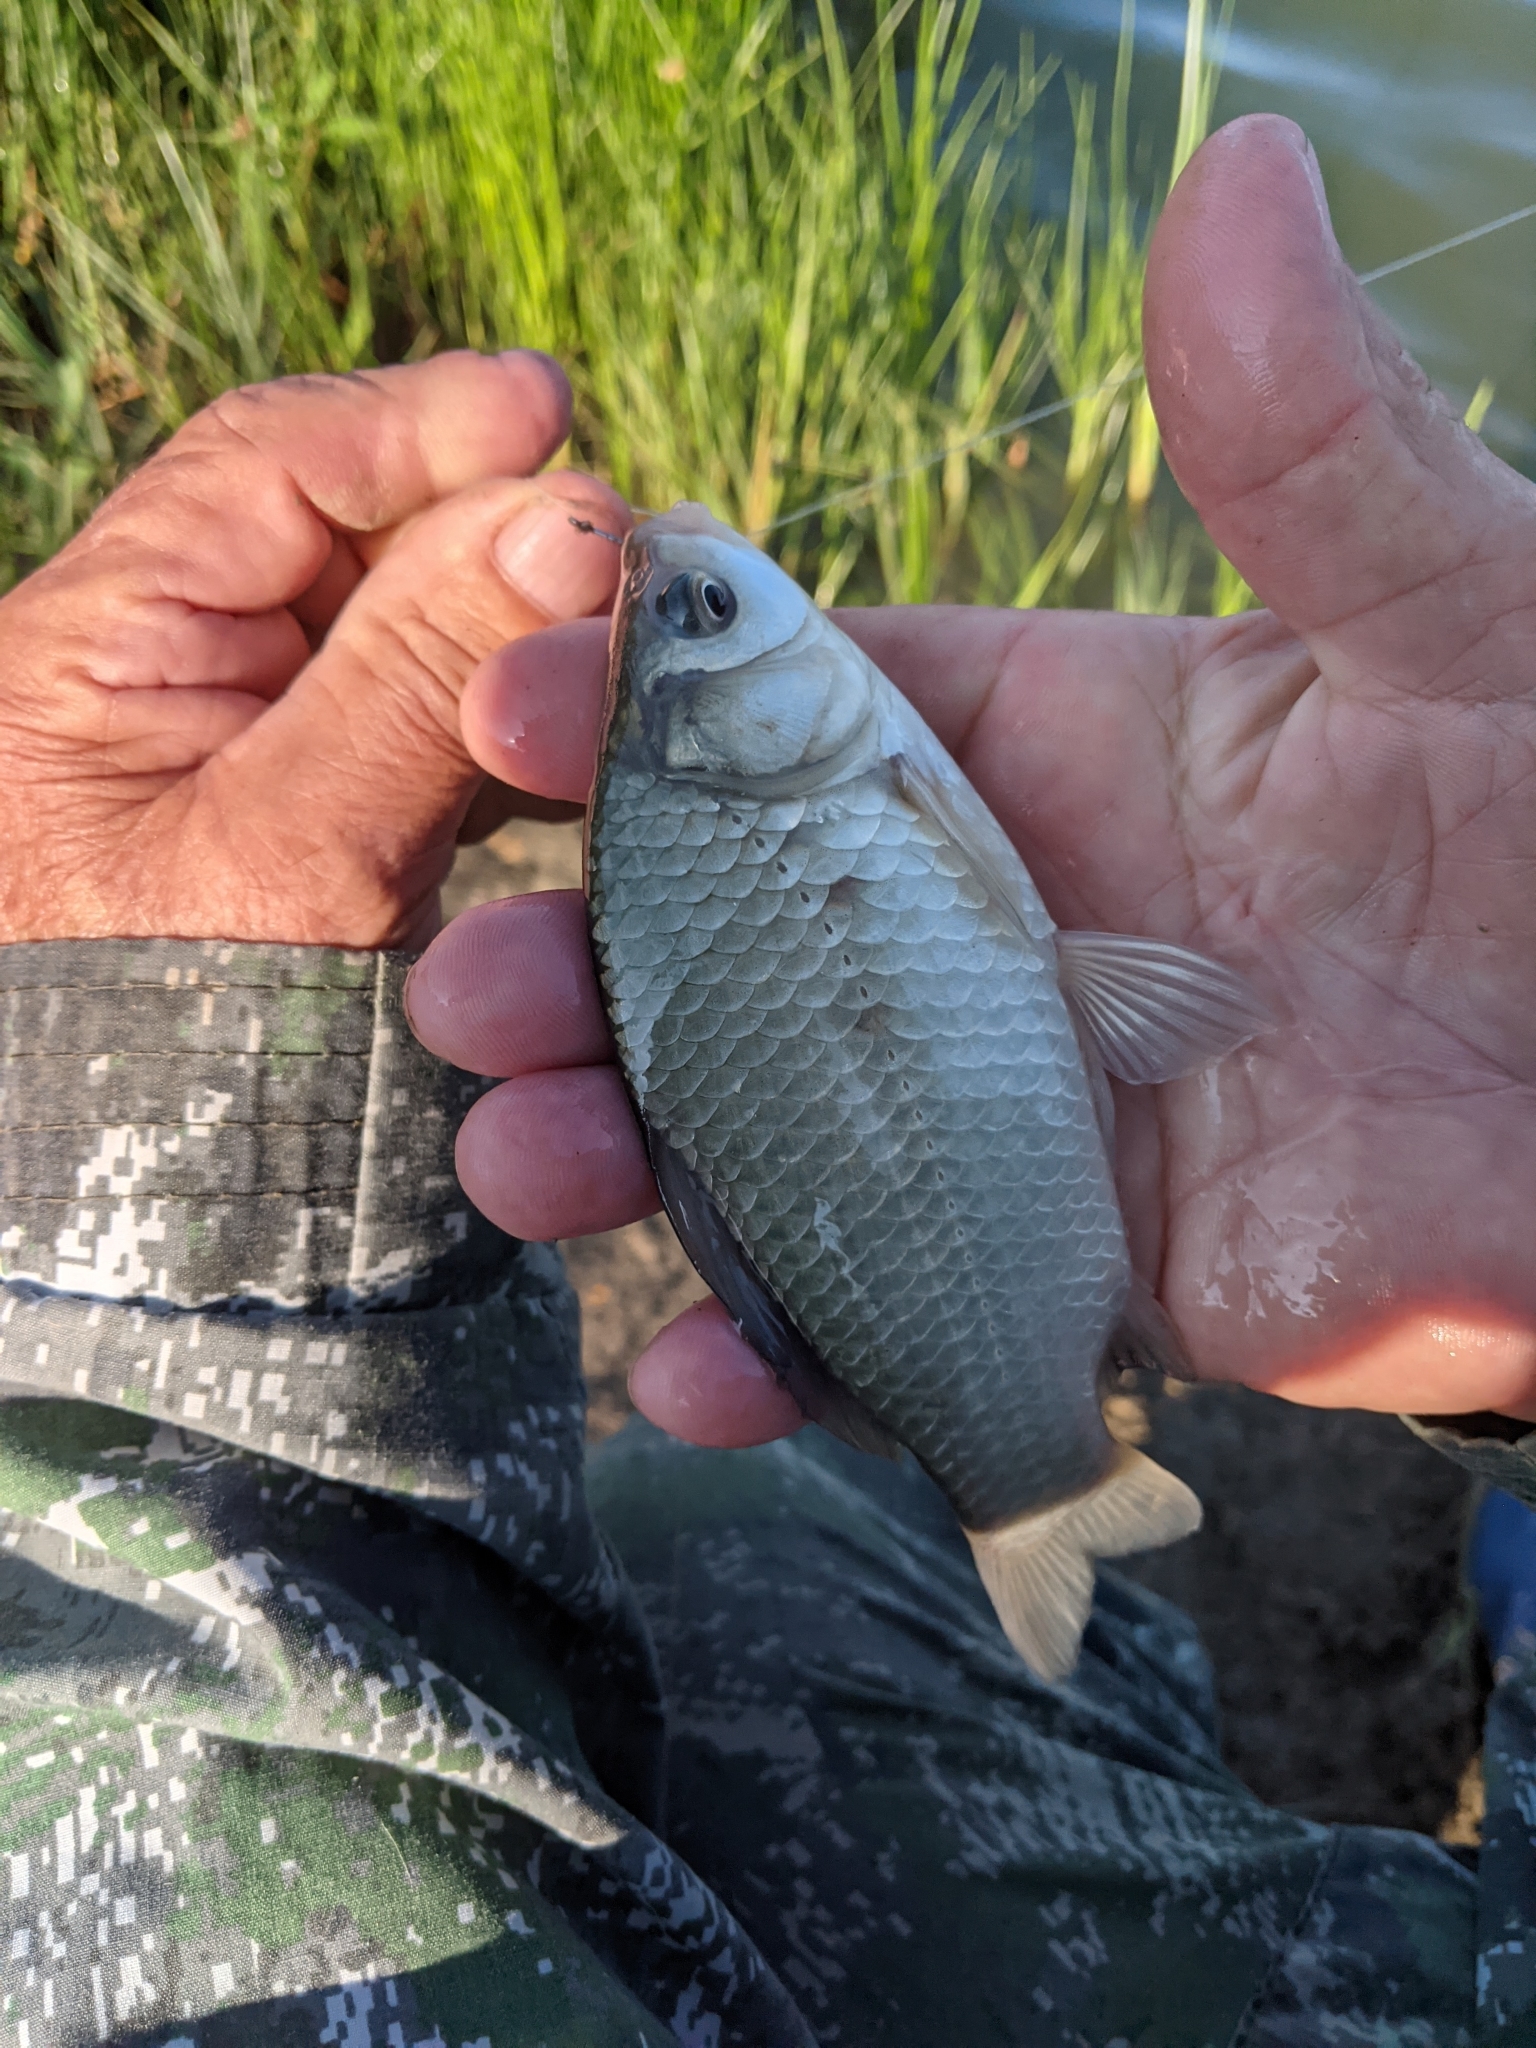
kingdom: Animalia
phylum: Chordata
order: Cypriniformes
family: Cyprinidae
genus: Carassius
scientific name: Carassius gibelio
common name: Prussian carp
